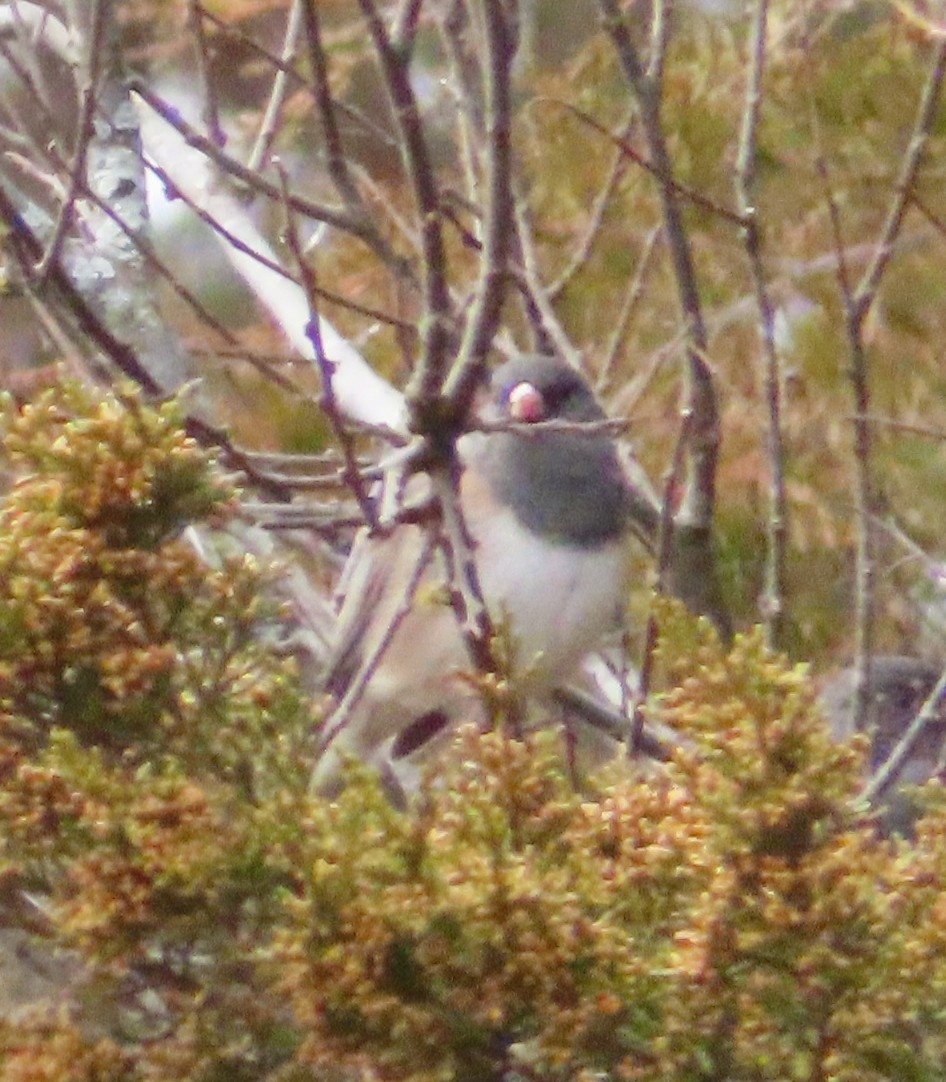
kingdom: Animalia
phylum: Chordata
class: Aves
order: Passeriformes
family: Passerellidae
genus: Junco
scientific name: Junco hyemalis
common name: Dark-eyed junco
